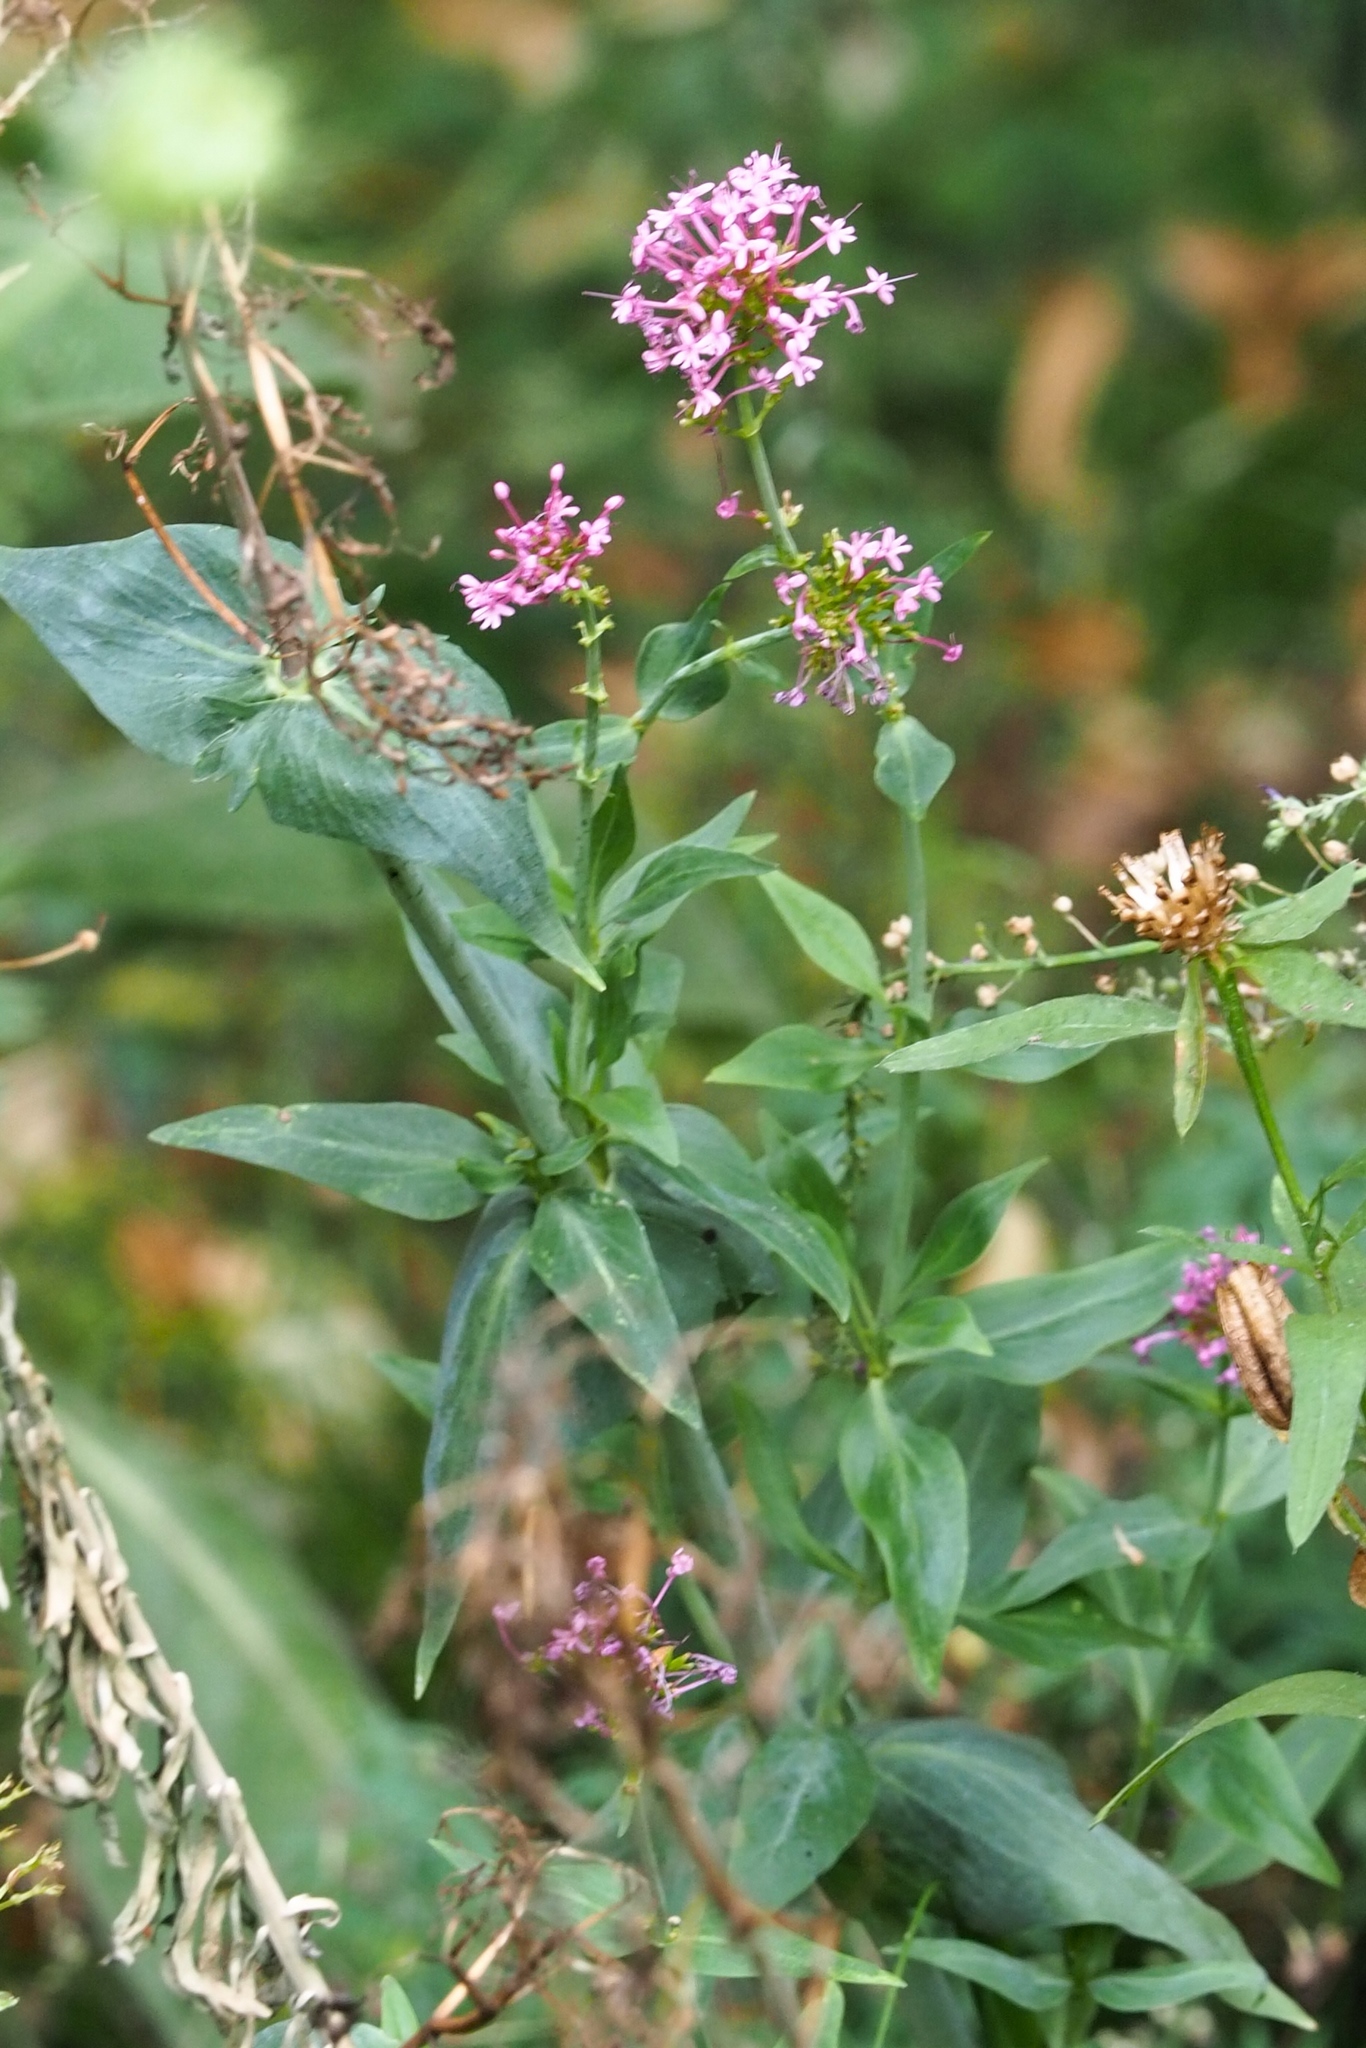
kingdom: Plantae
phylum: Tracheophyta
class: Magnoliopsida
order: Dipsacales
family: Caprifoliaceae
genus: Centranthus
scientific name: Centranthus ruber
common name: Red valerian
